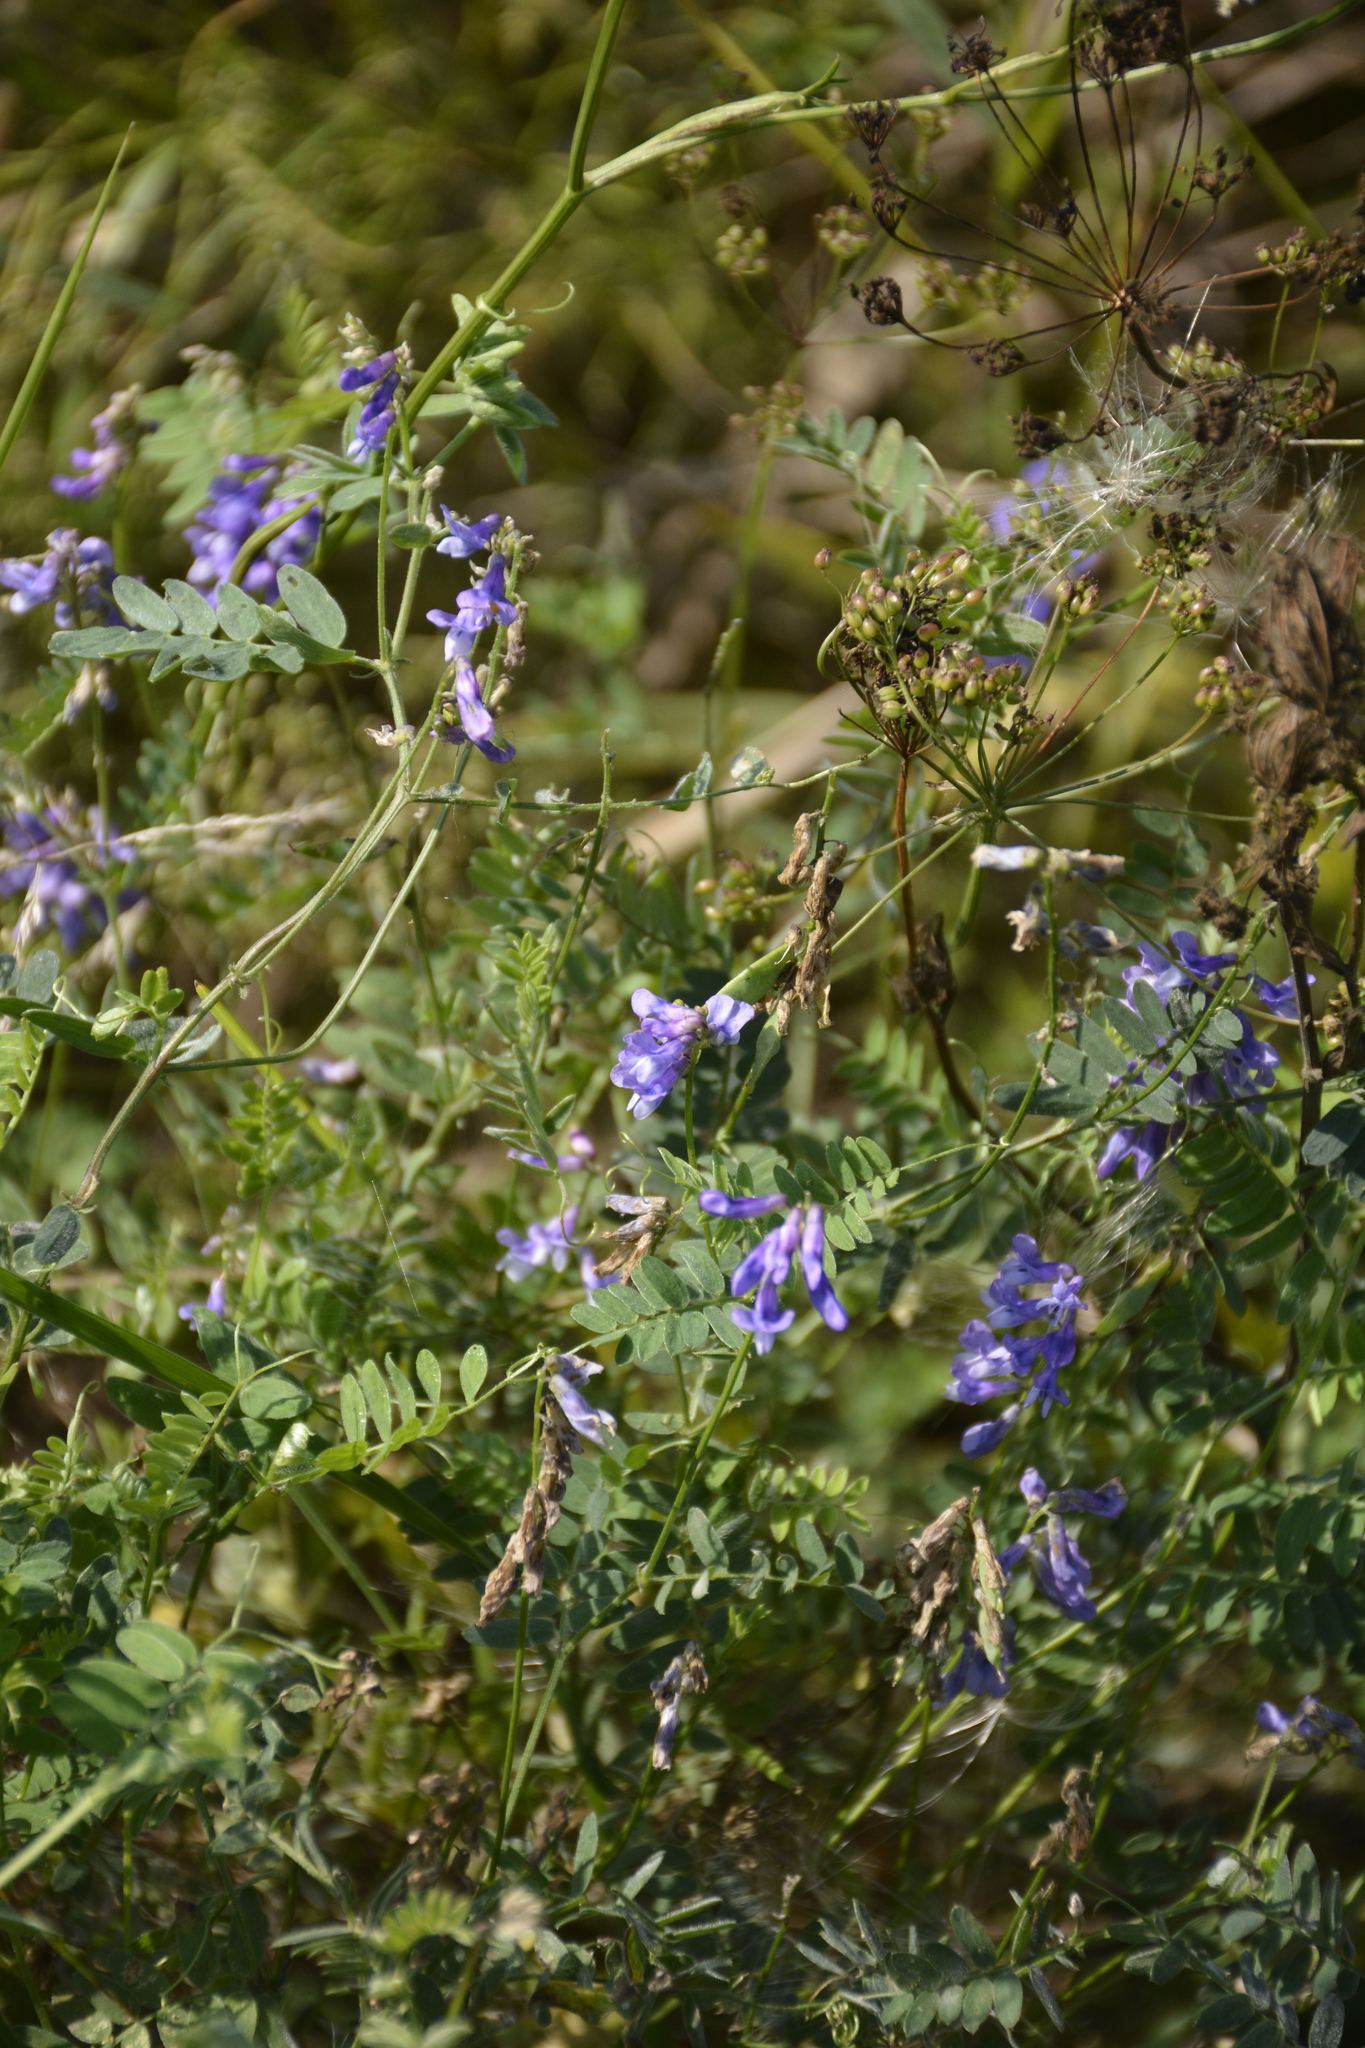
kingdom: Plantae
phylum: Tracheophyta
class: Magnoliopsida
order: Fabales
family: Fabaceae
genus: Vicia
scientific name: Vicia cracca
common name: Bird vetch
